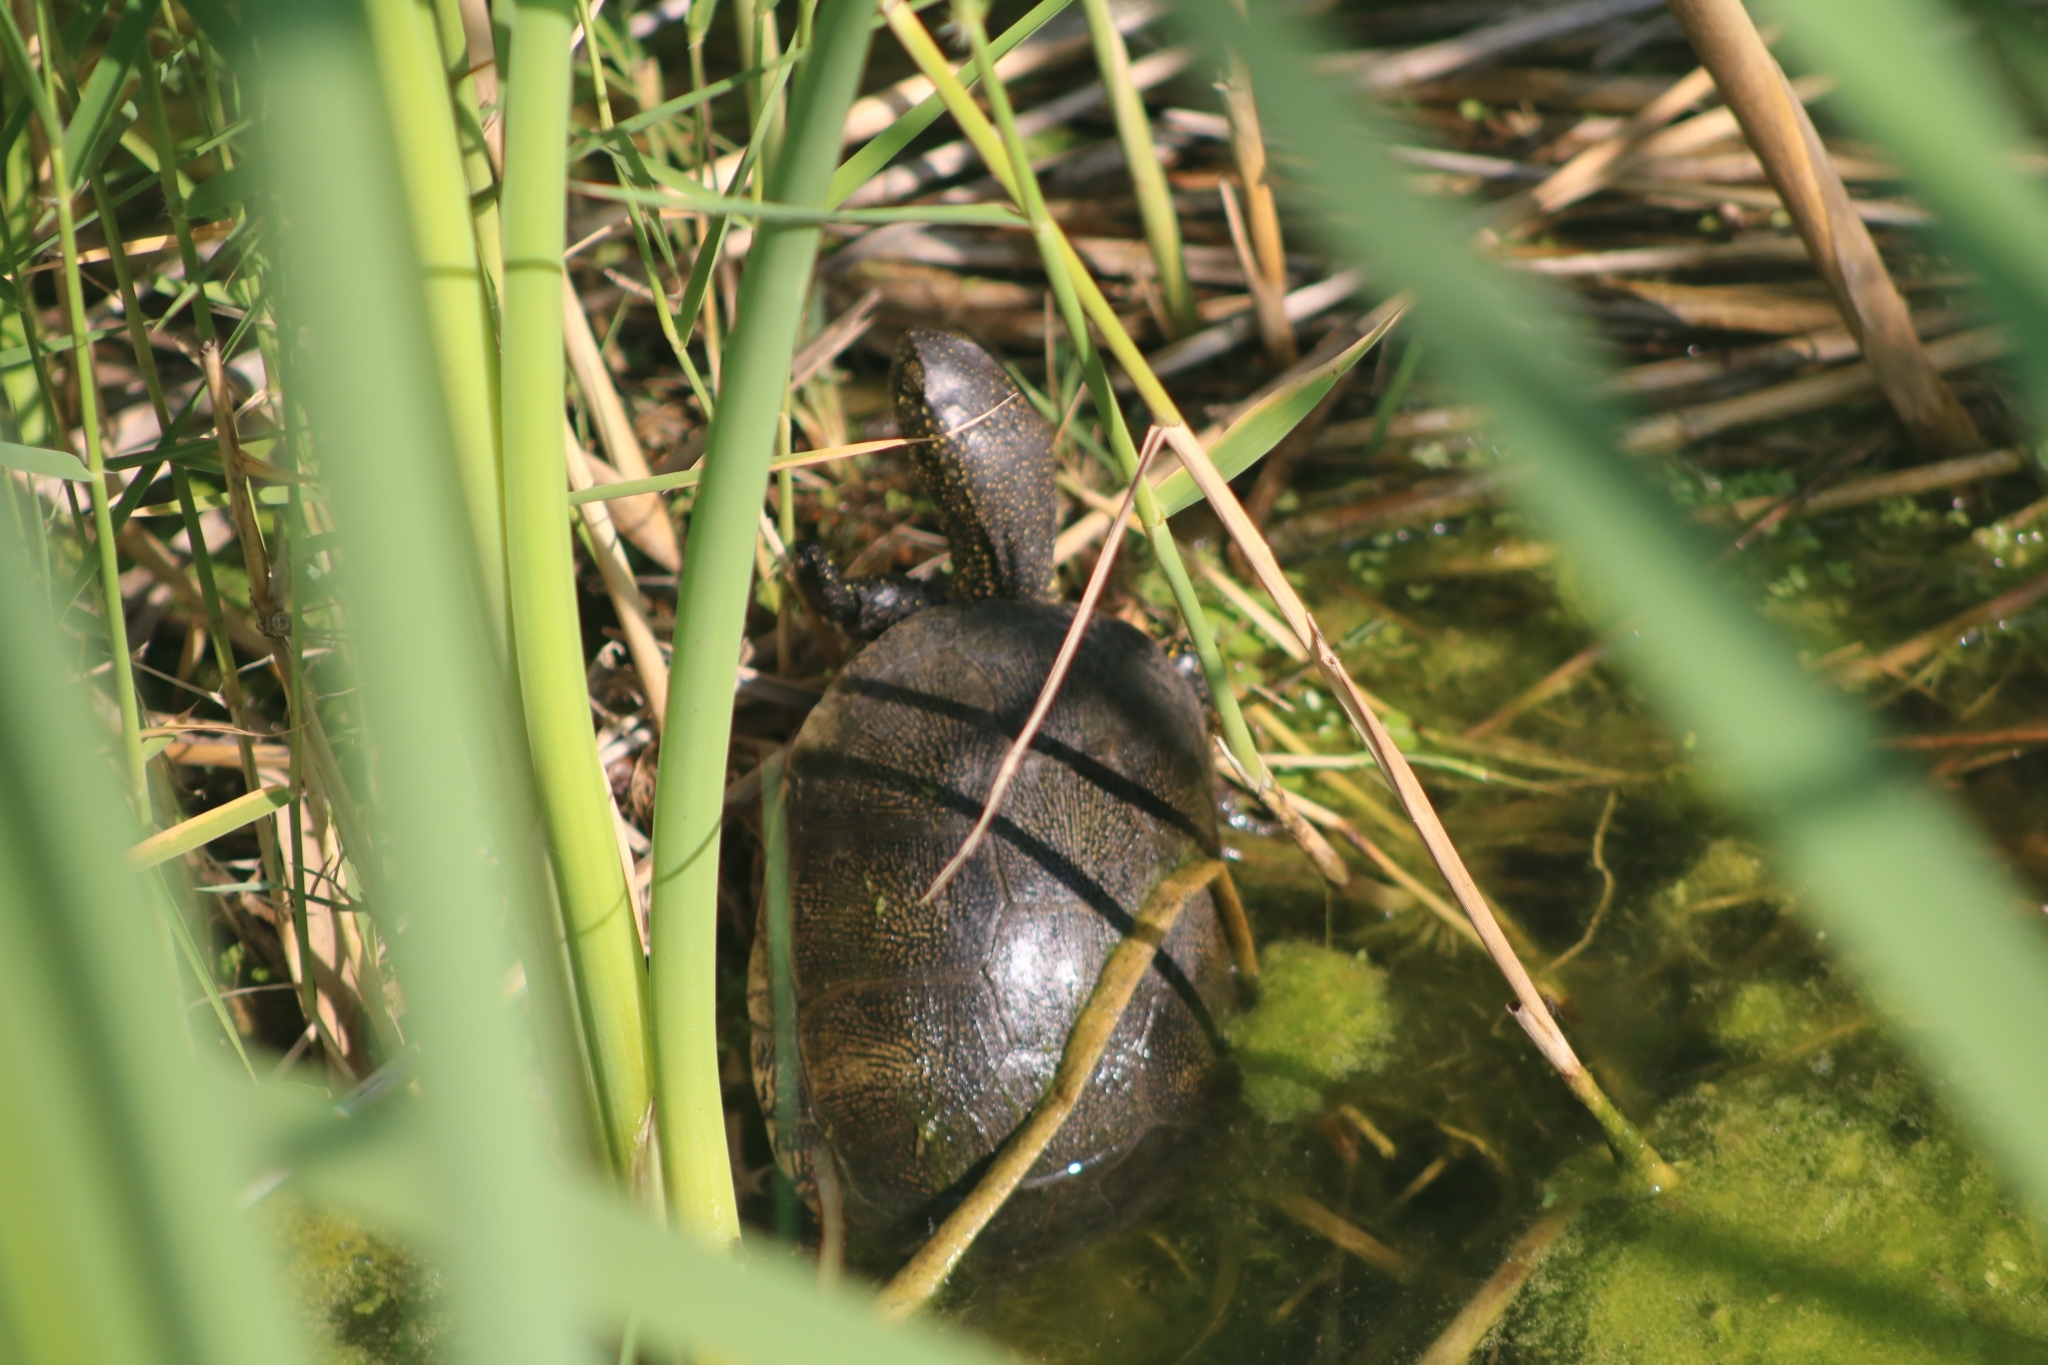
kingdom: Animalia
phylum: Chordata
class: Testudines
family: Emydidae
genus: Emys
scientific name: Emys orbicularis
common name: European pond turtle
